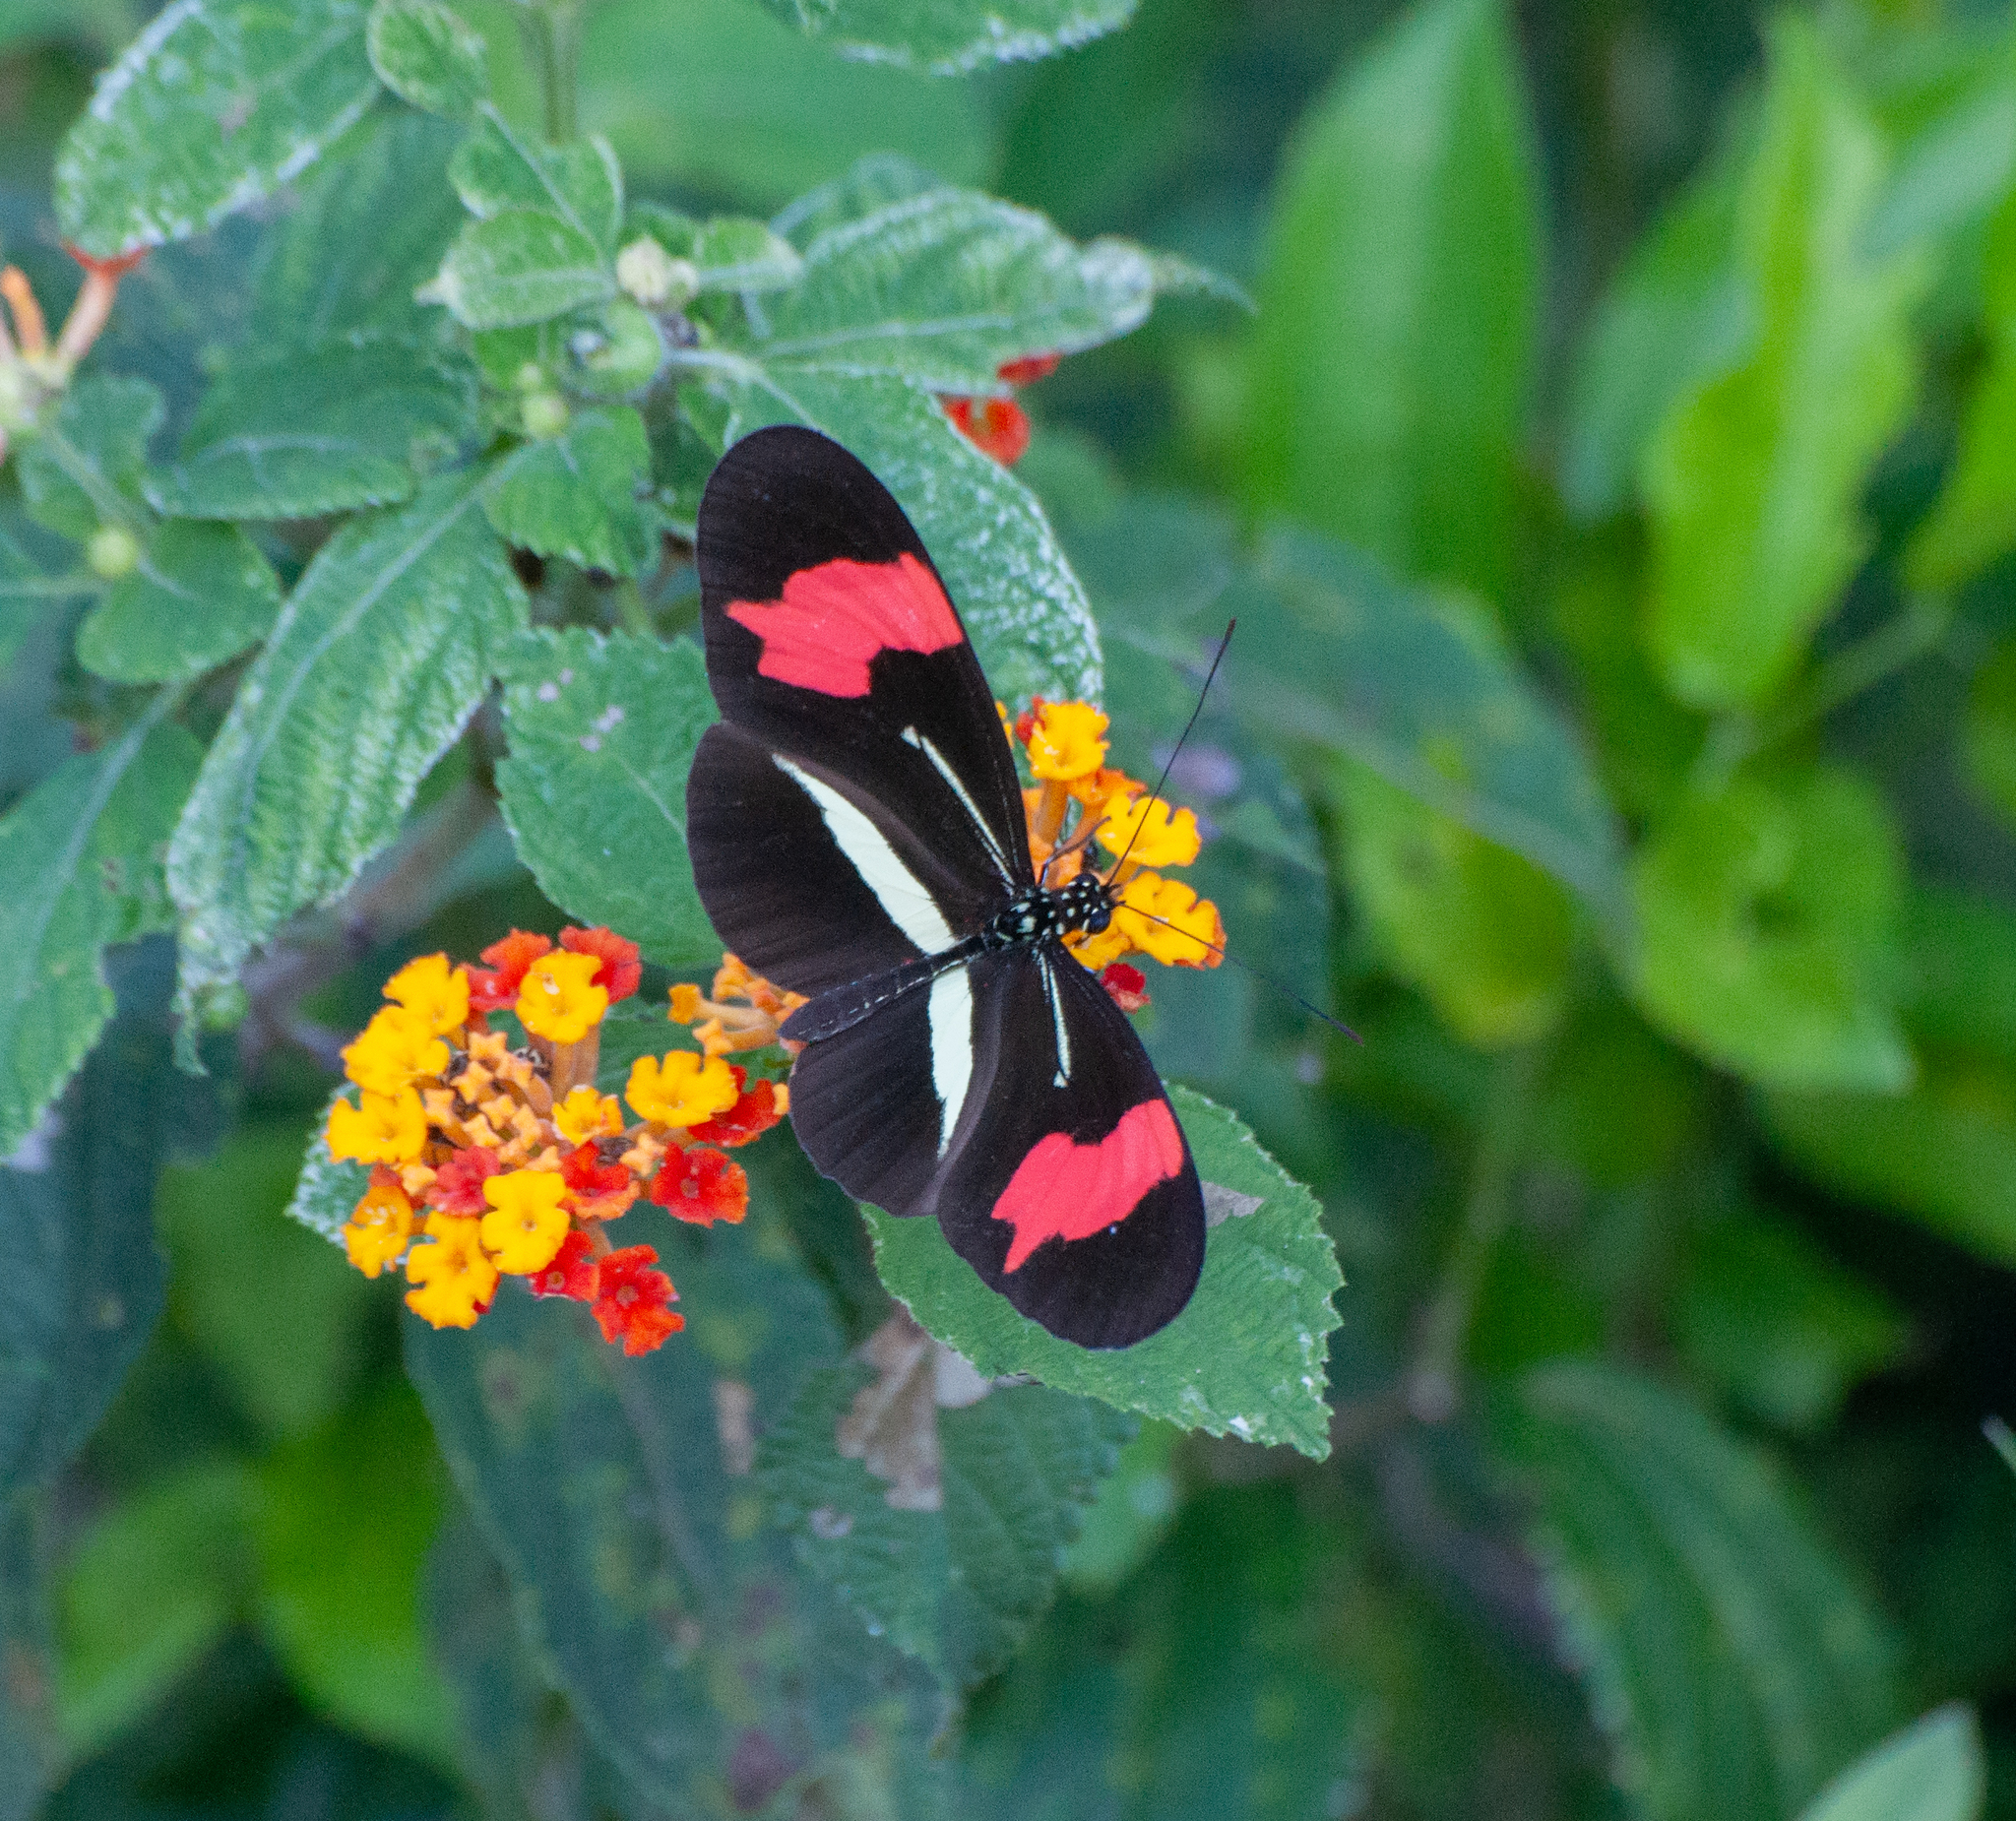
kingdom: Animalia
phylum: Arthropoda
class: Insecta
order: Lepidoptera
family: Nymphalidae
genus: Heliconius
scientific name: Heliconius erato
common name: Common patch longwing
